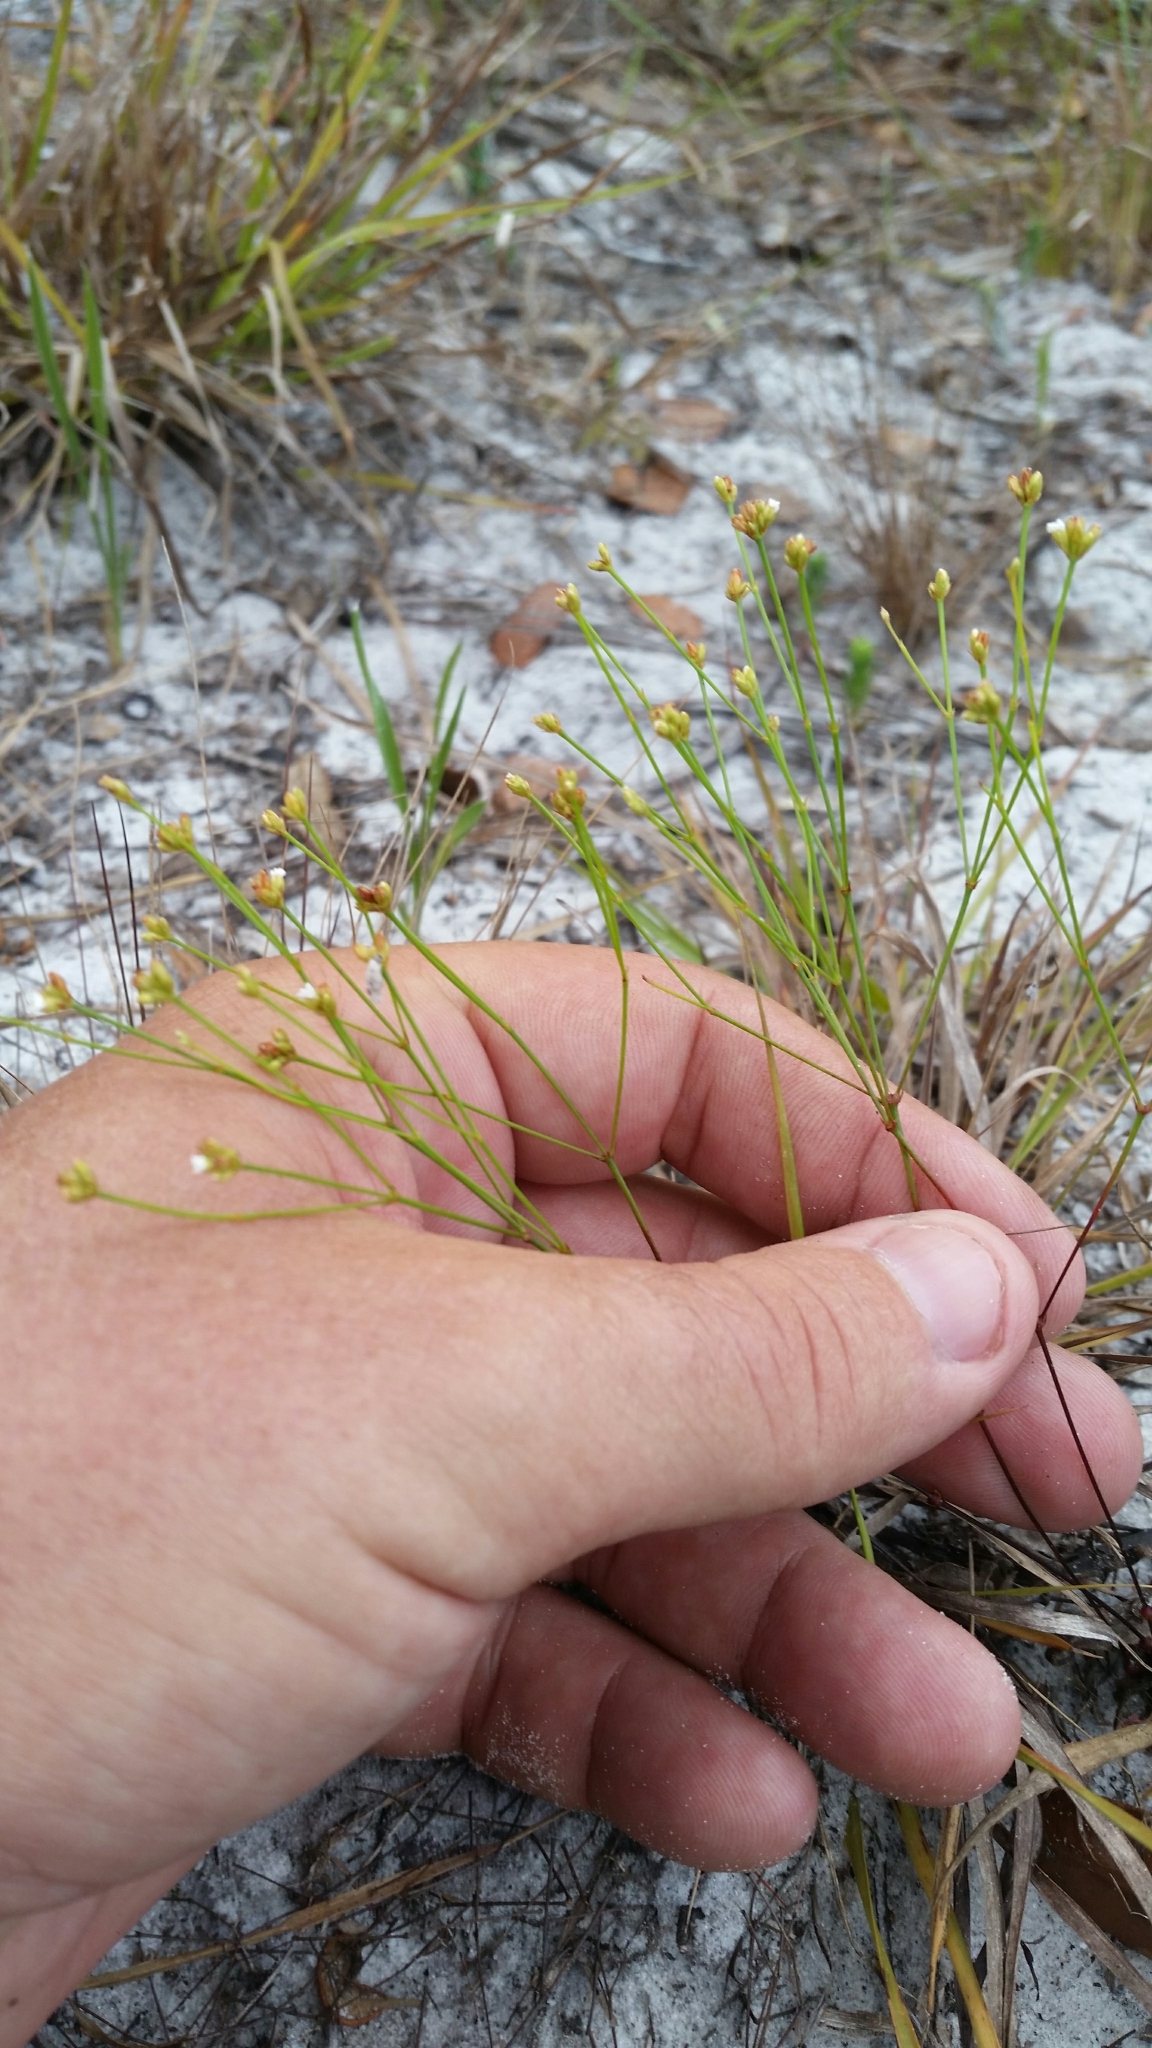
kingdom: Plantae
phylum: Tracheophyta
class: Magnoliopsida
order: Caryophyllales
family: Caryophyllaceae
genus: Stipulicida
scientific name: Stipulicida setacea
